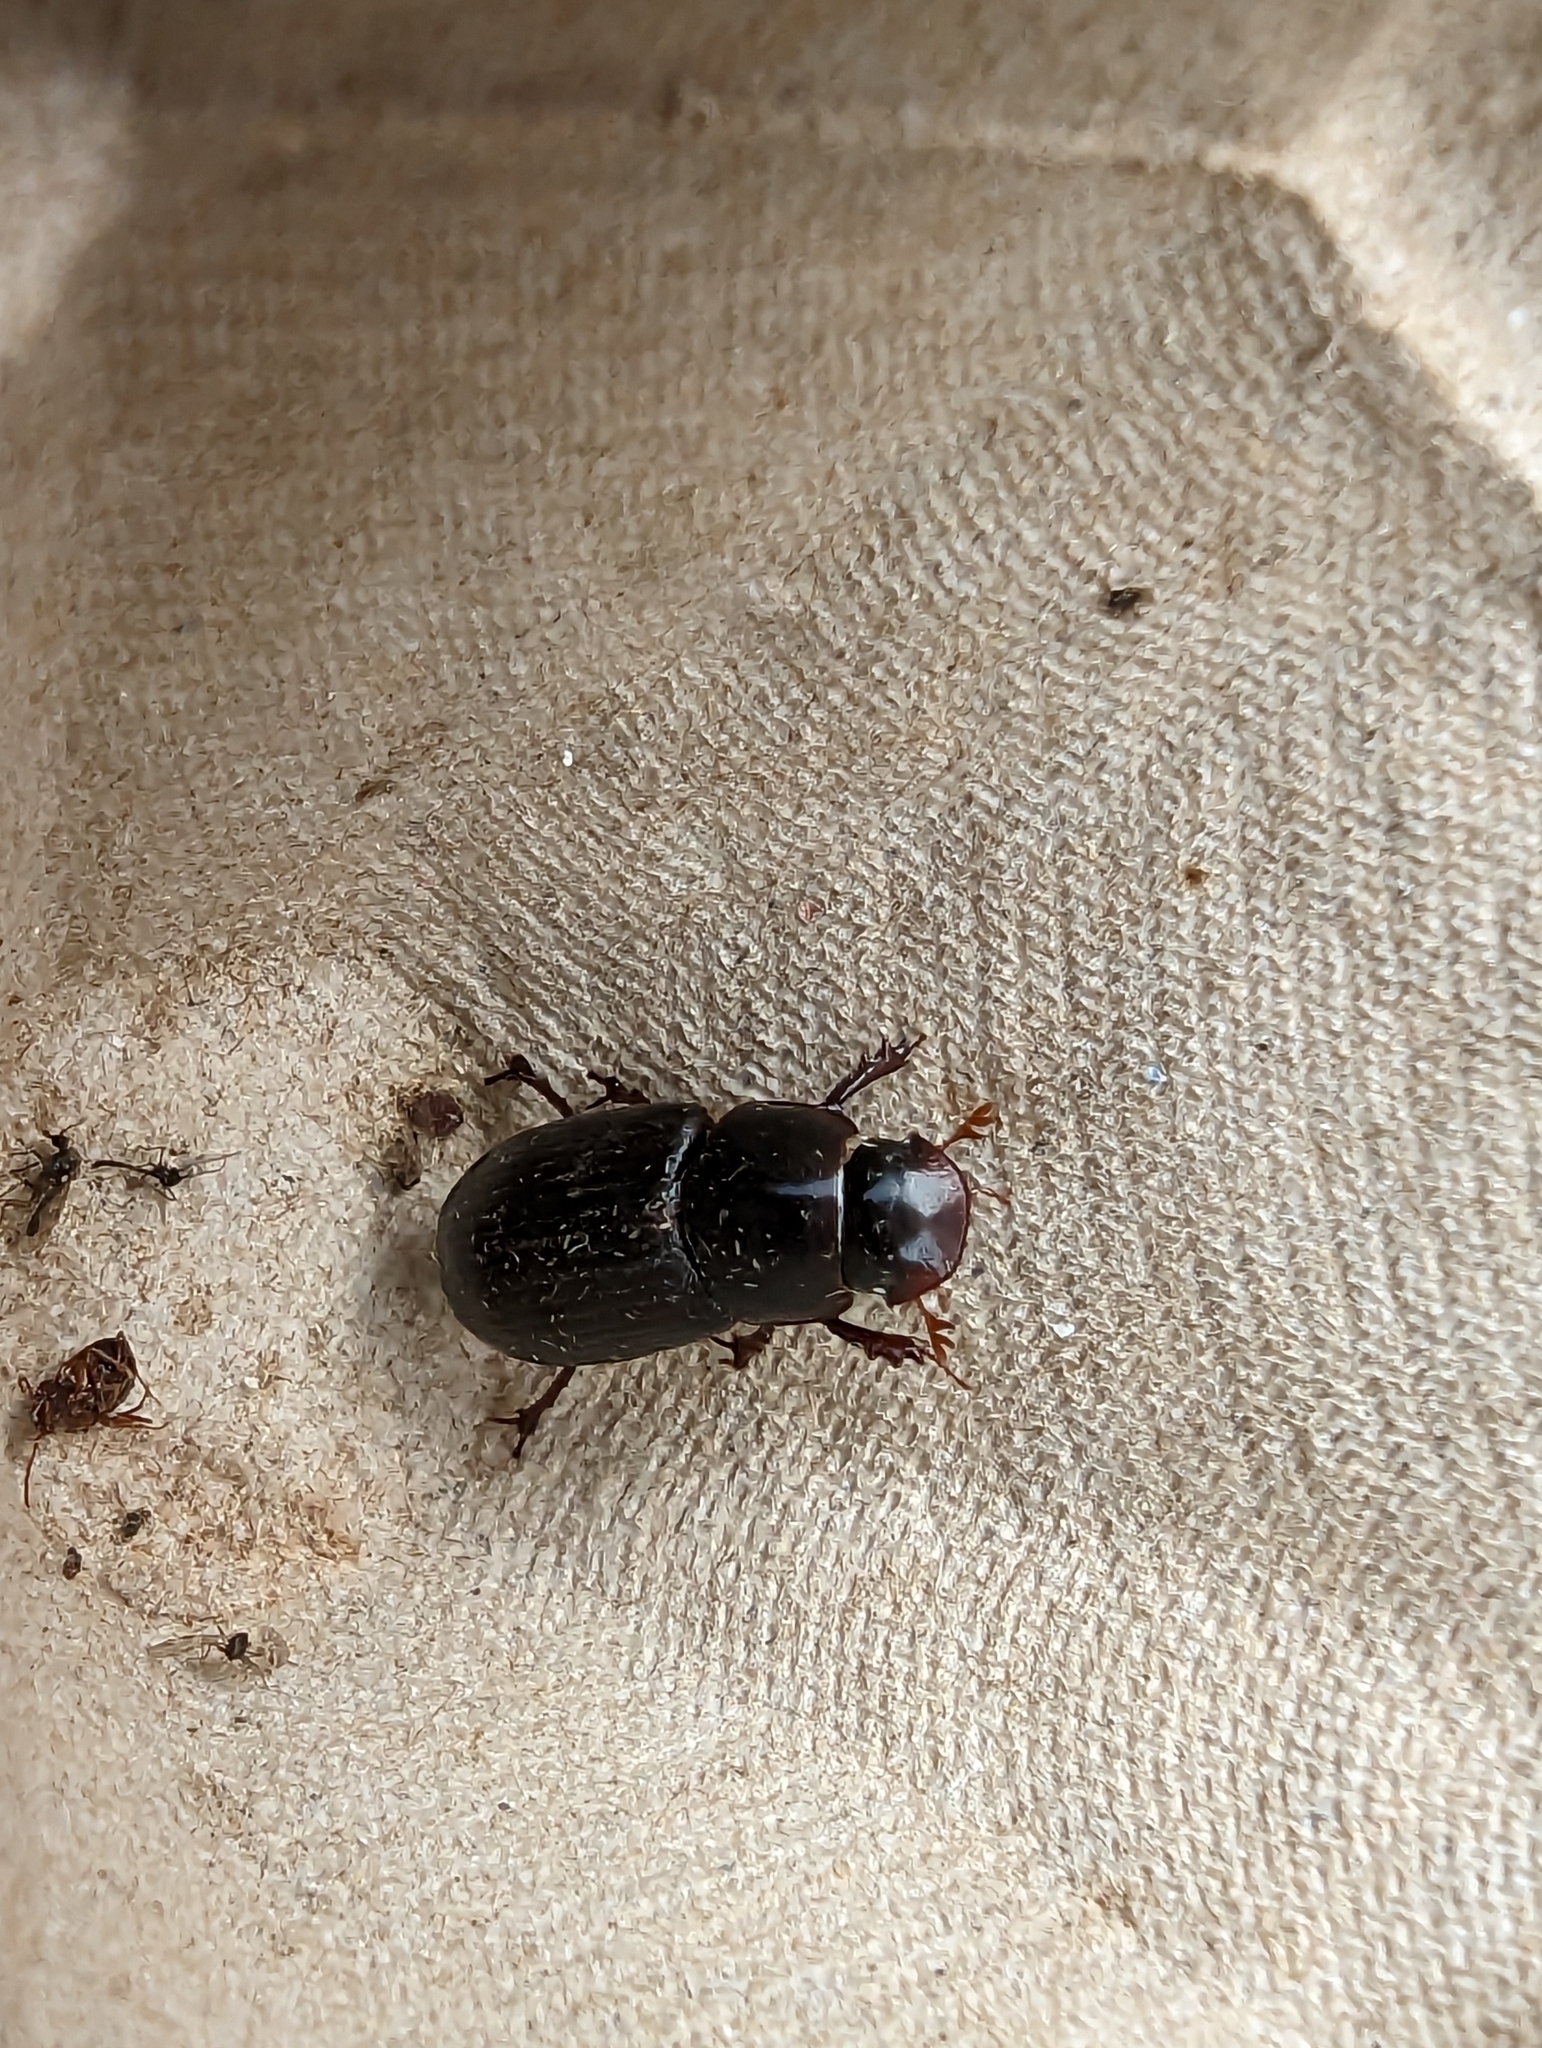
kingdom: Animalia
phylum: Arthropoda
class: Insecta
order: Coleoptera
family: Scarabaeidae
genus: Acrossus
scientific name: Acrossus rufipes
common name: Night-flying dung beetle
